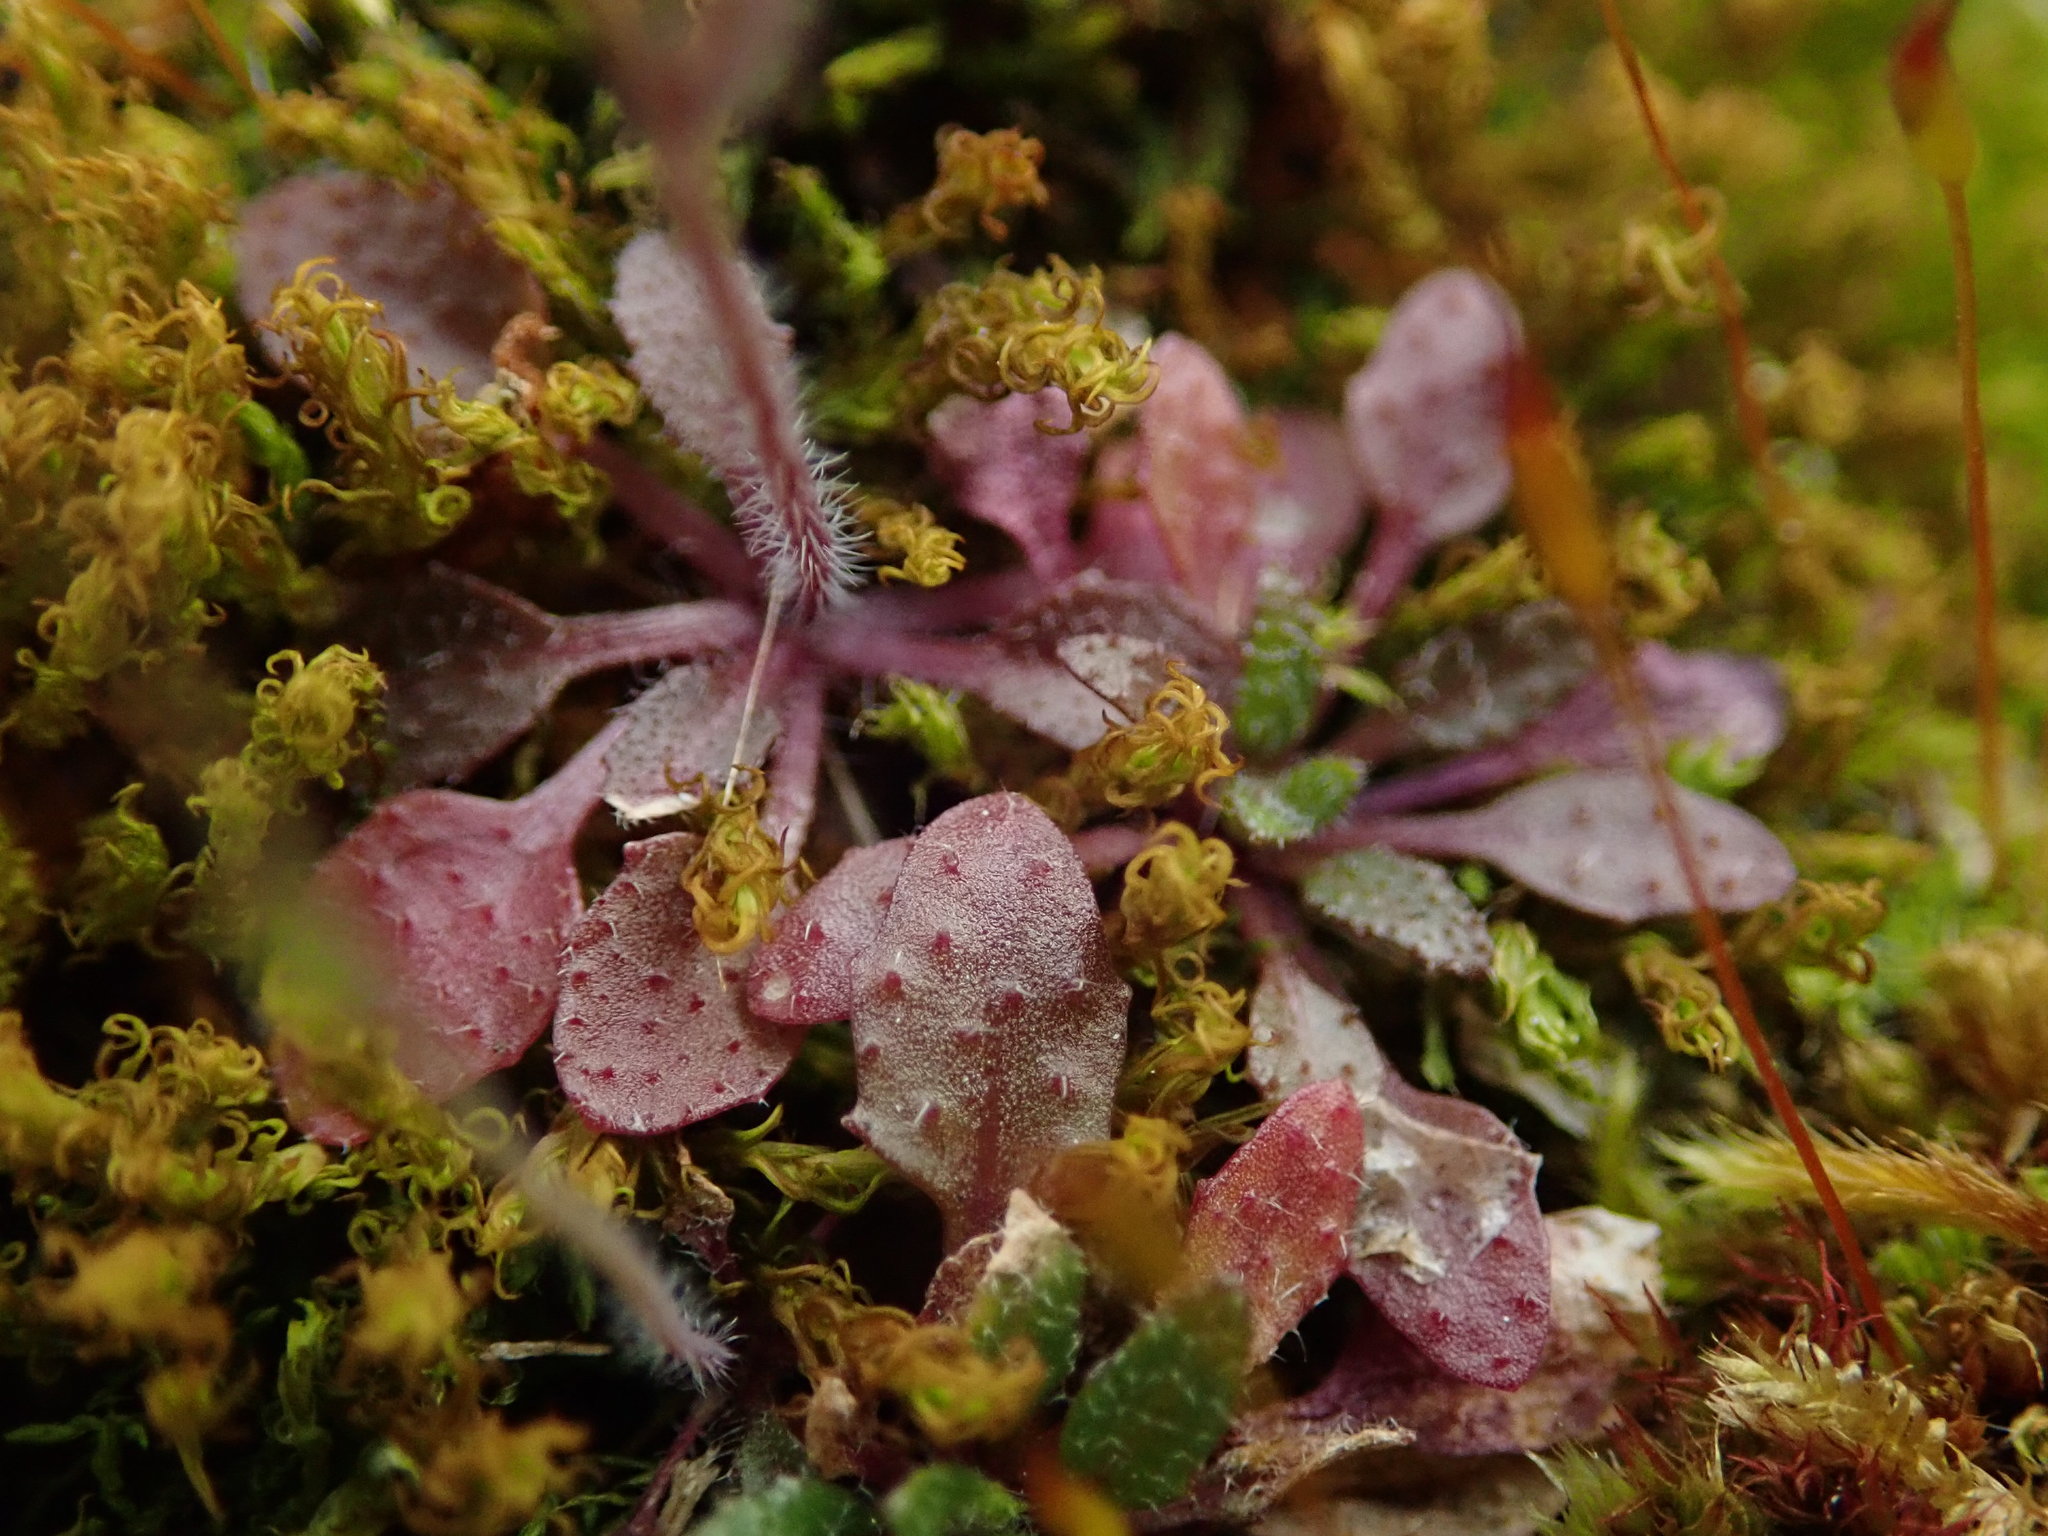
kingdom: Plantae
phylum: Tracheophyta
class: Magnoliopsida
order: Brassicales
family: Brassicaceae
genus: Arabidopsis
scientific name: Arabidopsis thaliana
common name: Thale cress
